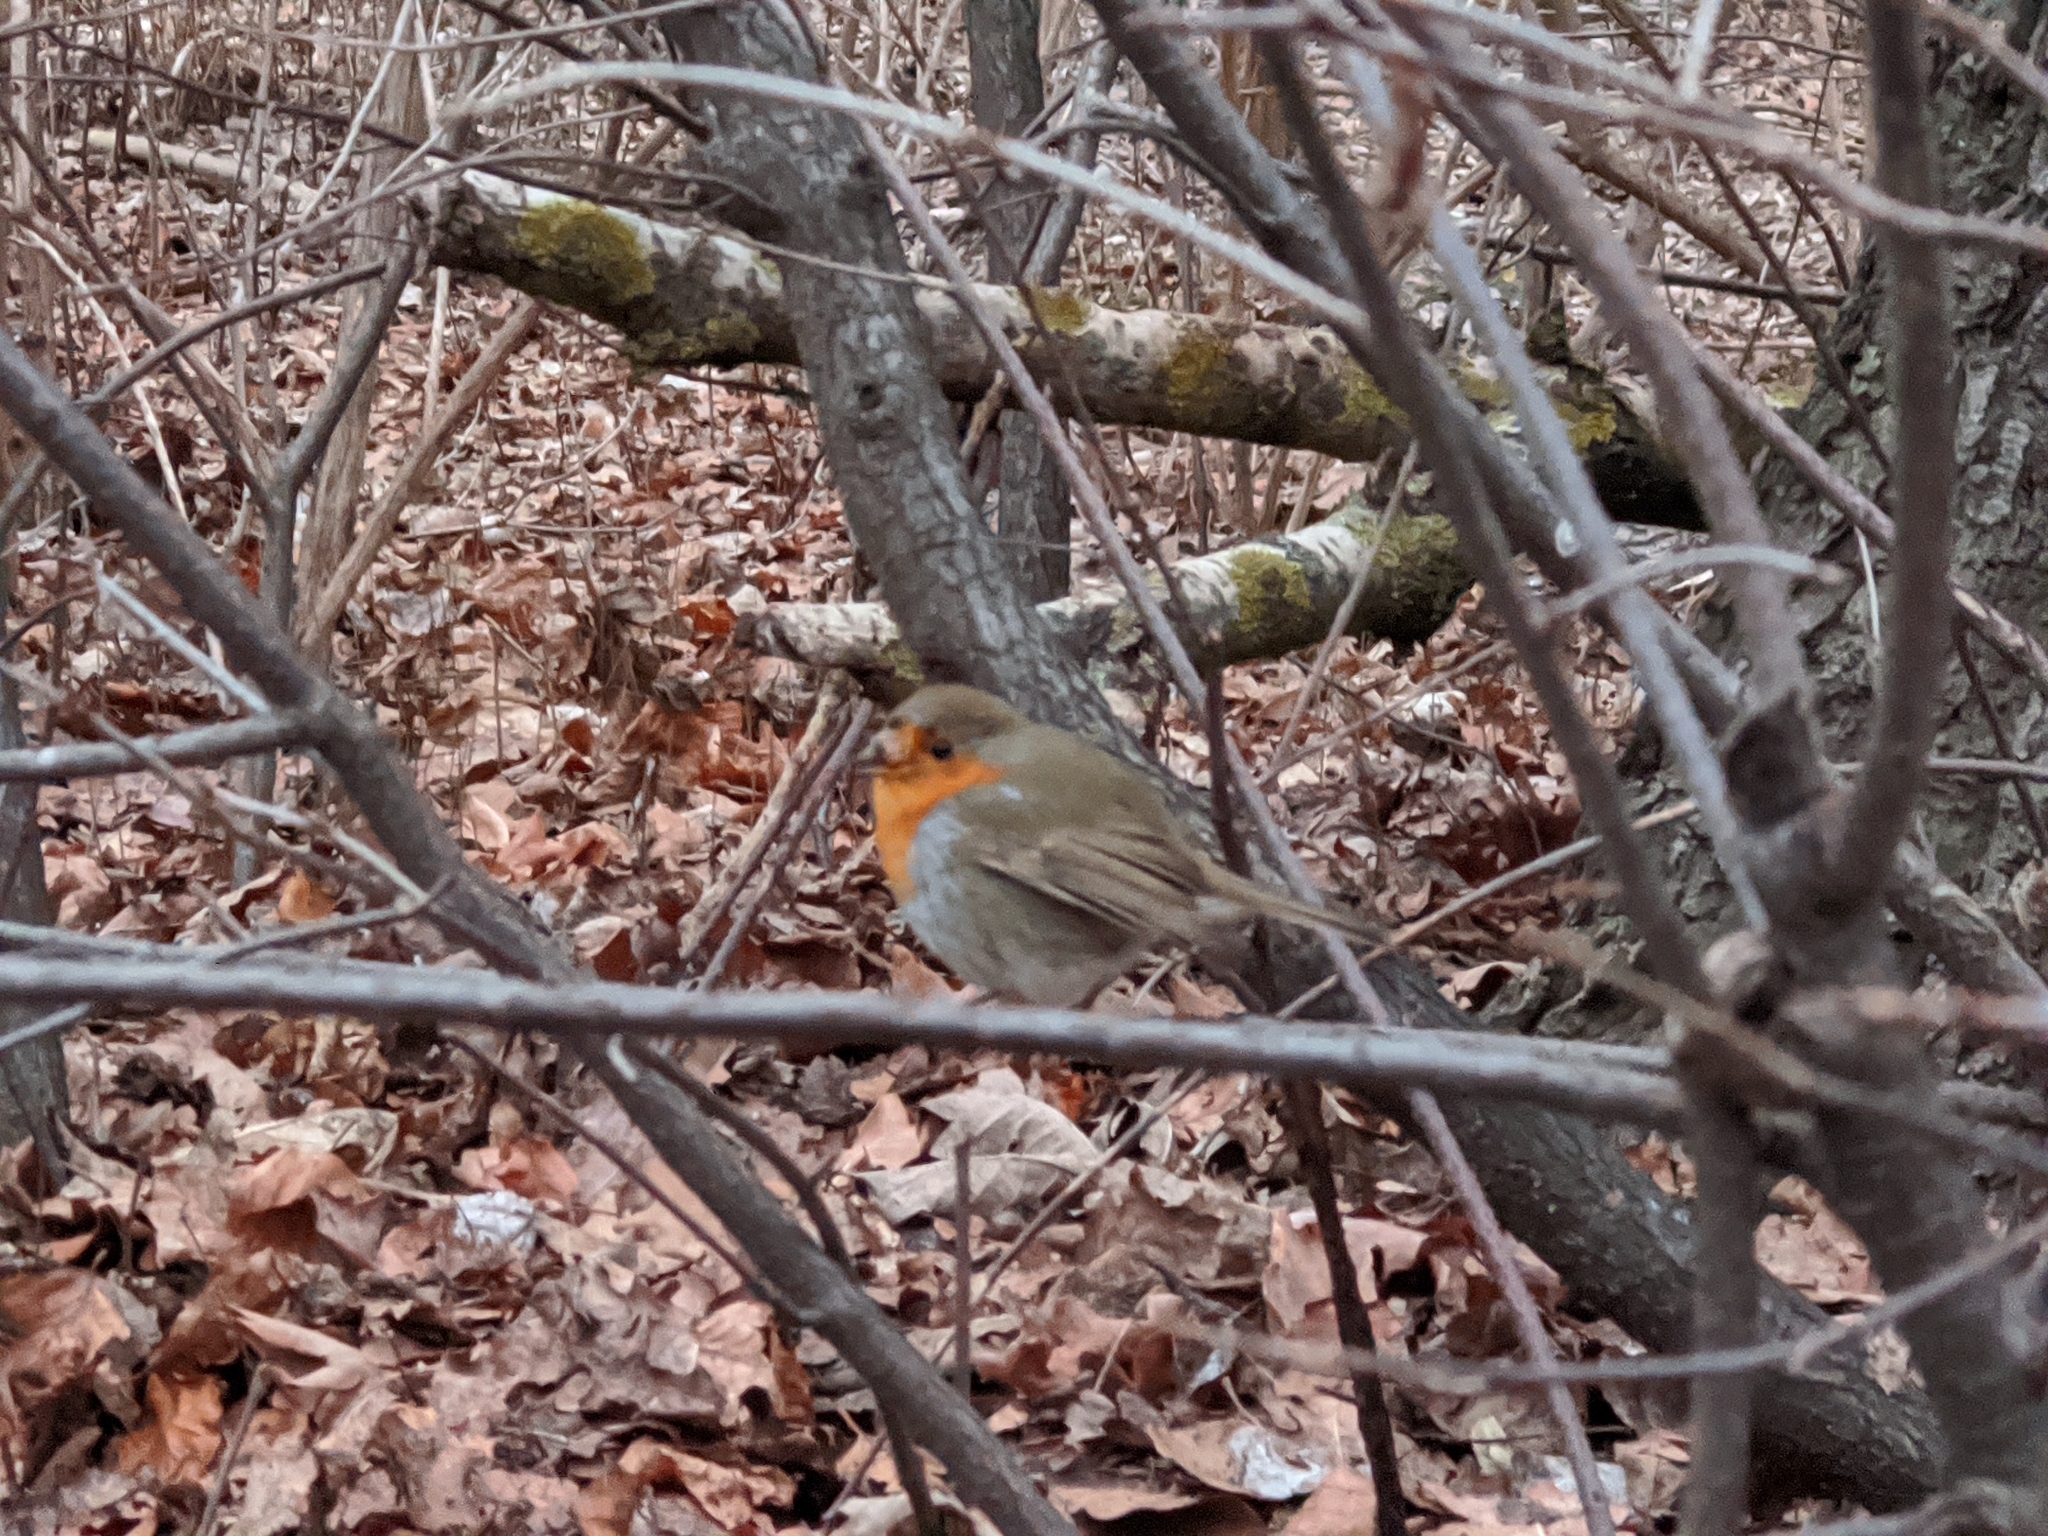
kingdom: Animalia
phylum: Chordata
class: Aves
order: Passeriformes
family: Muscicapidae
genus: Erithacus
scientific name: Erithacus rubecula
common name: European robin
